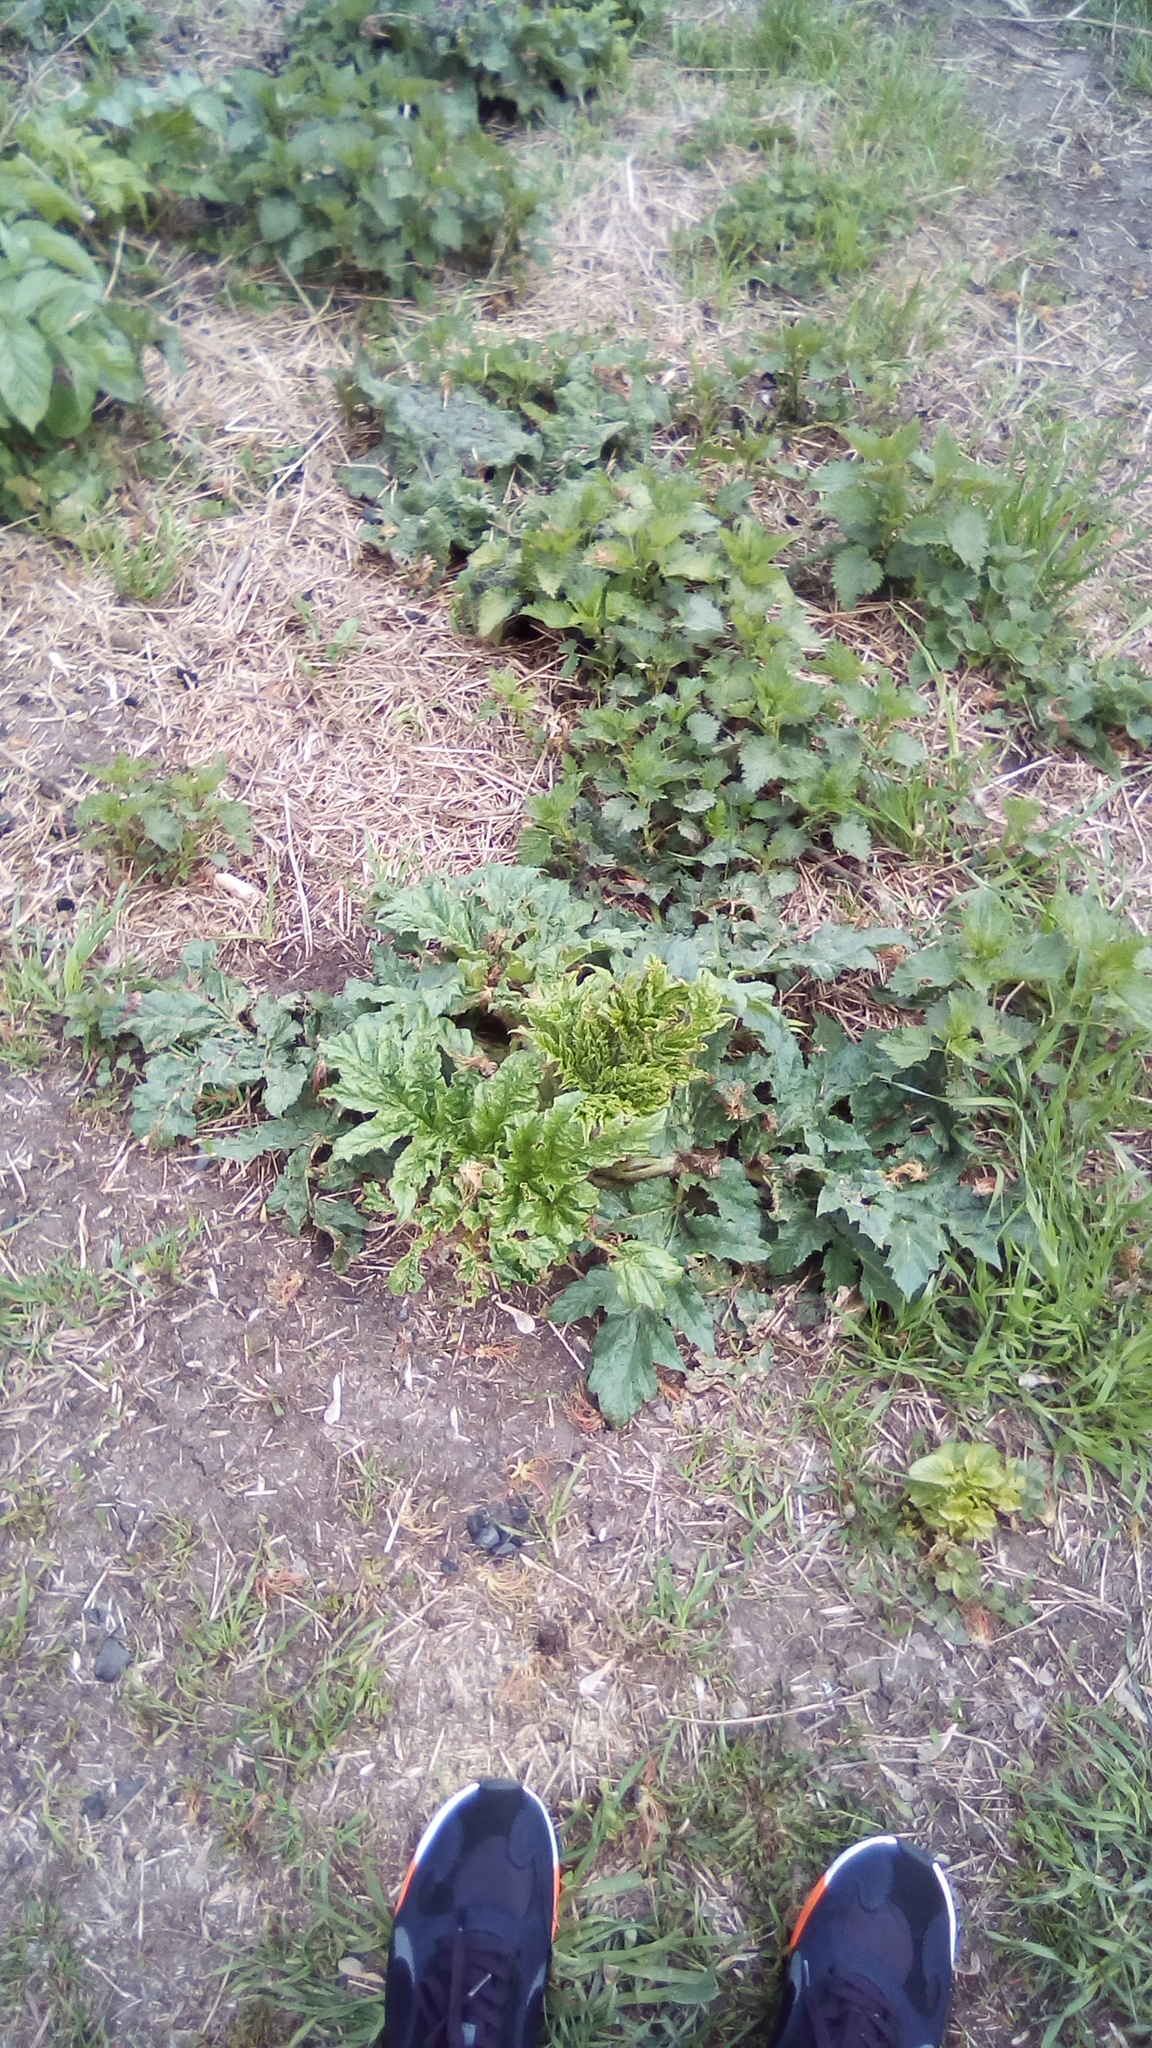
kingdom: Plantae
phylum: Tracheophyta
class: Magnoliopsida
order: Apiales
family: Apiaceae
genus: Heracleum
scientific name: Heracleum sosnowskyi
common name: Sosnowsky's hogweed
